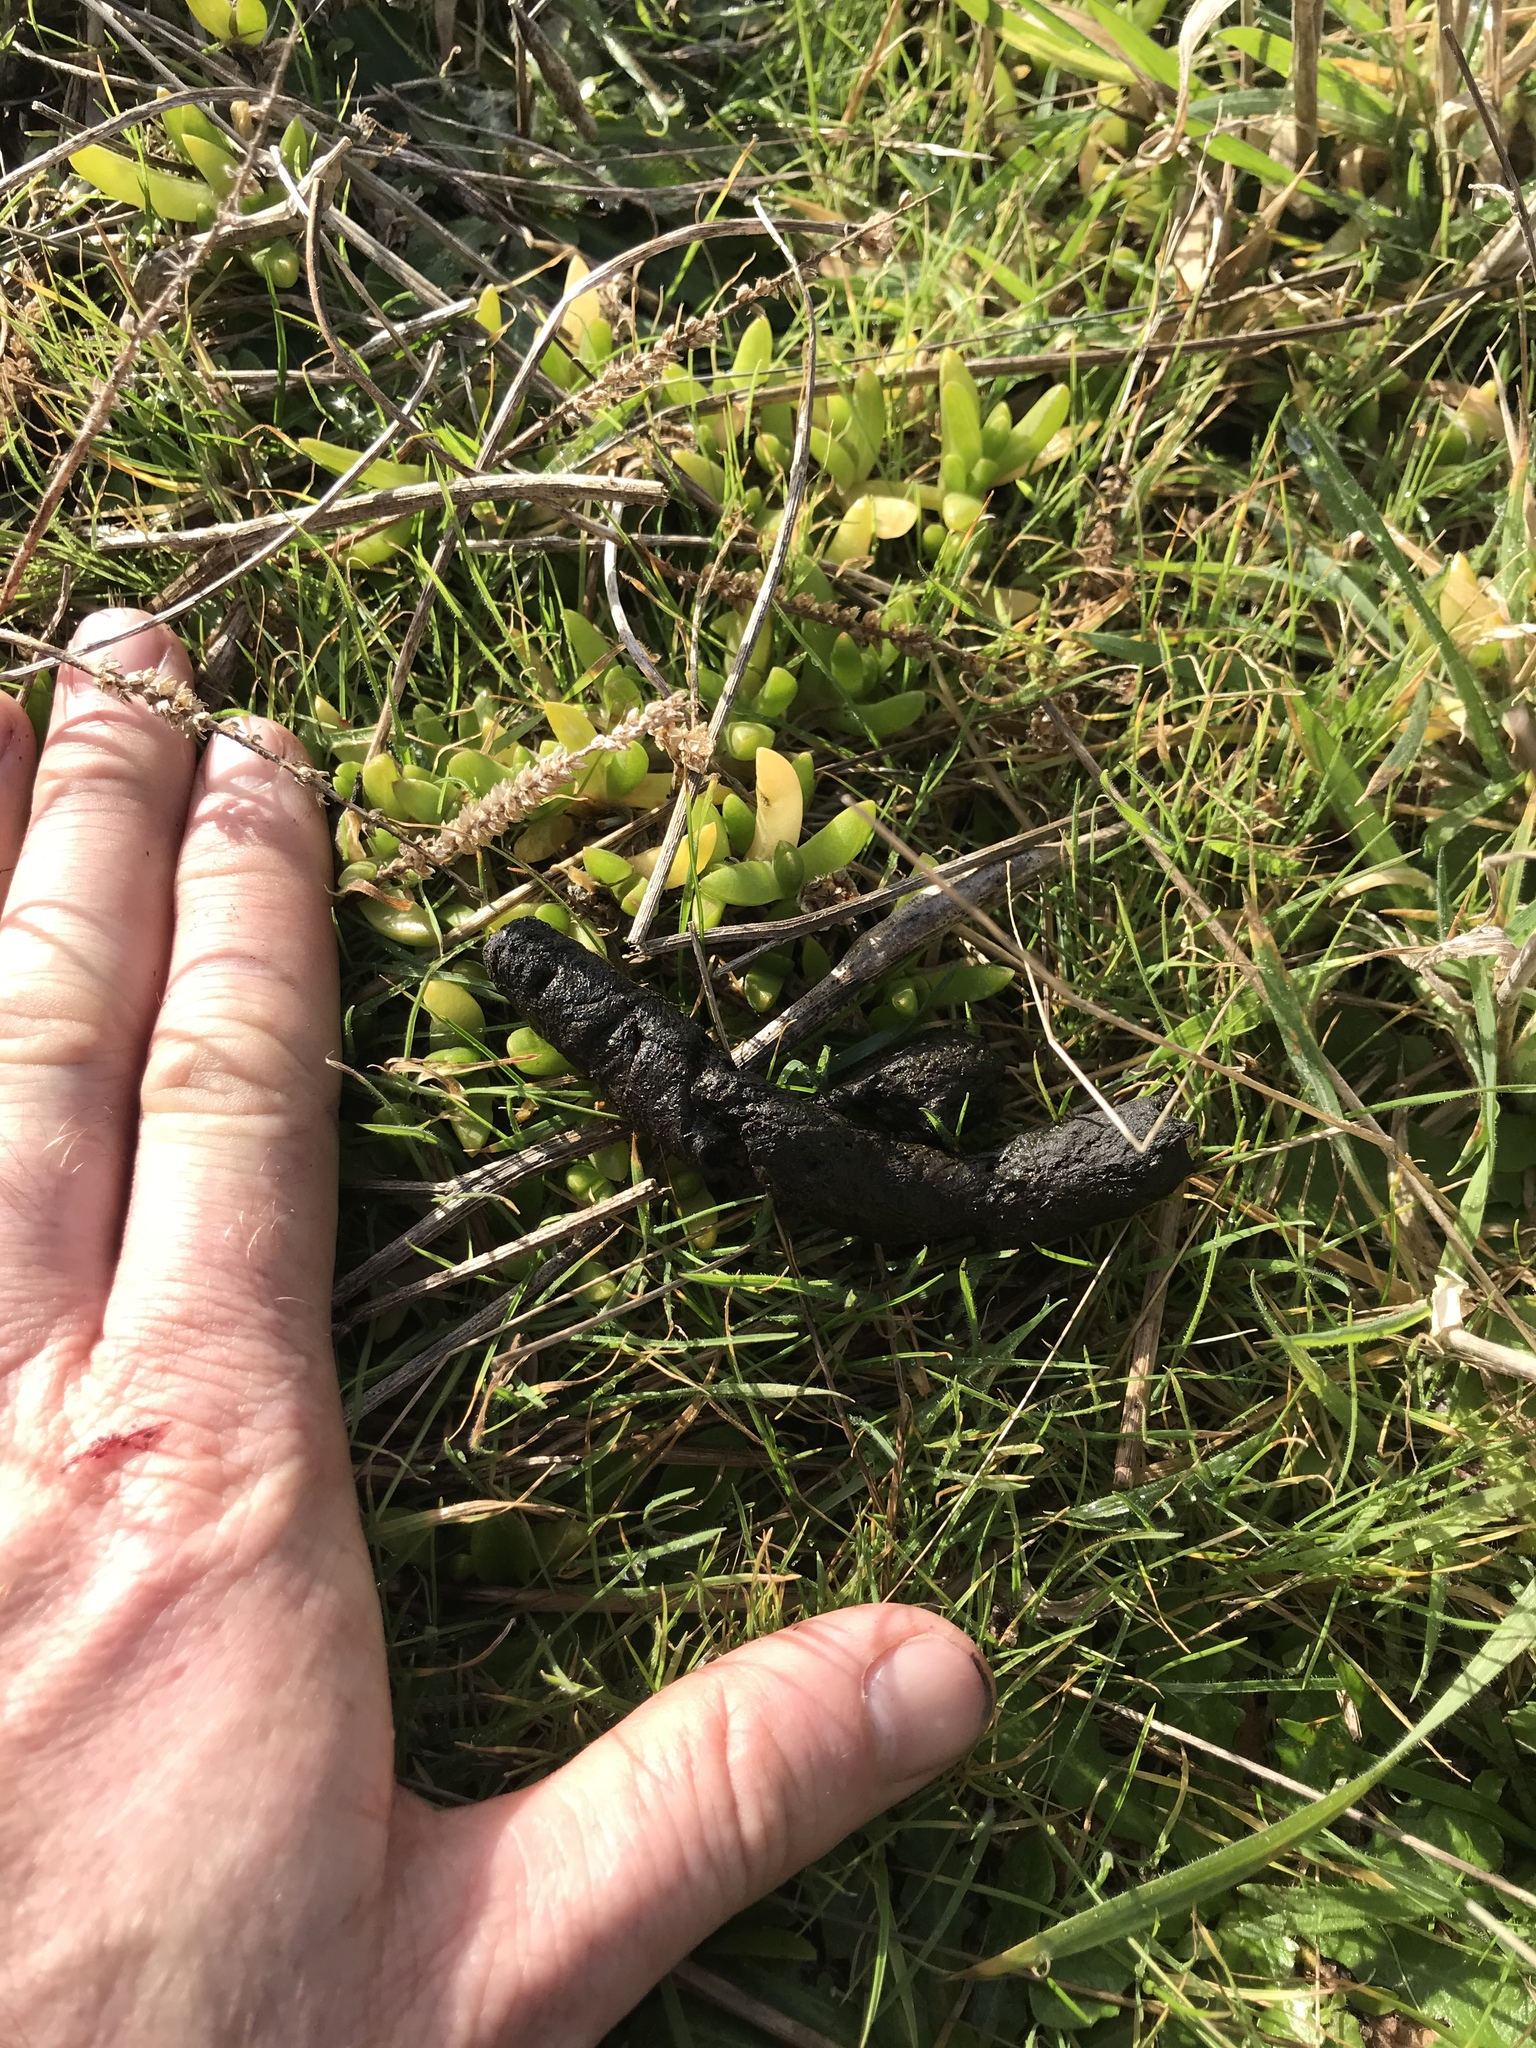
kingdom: Animalia
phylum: Chordata
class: Mammalia
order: Carnivora
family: Felidae
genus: Felis
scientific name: Felis catus
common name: Domestic cat
